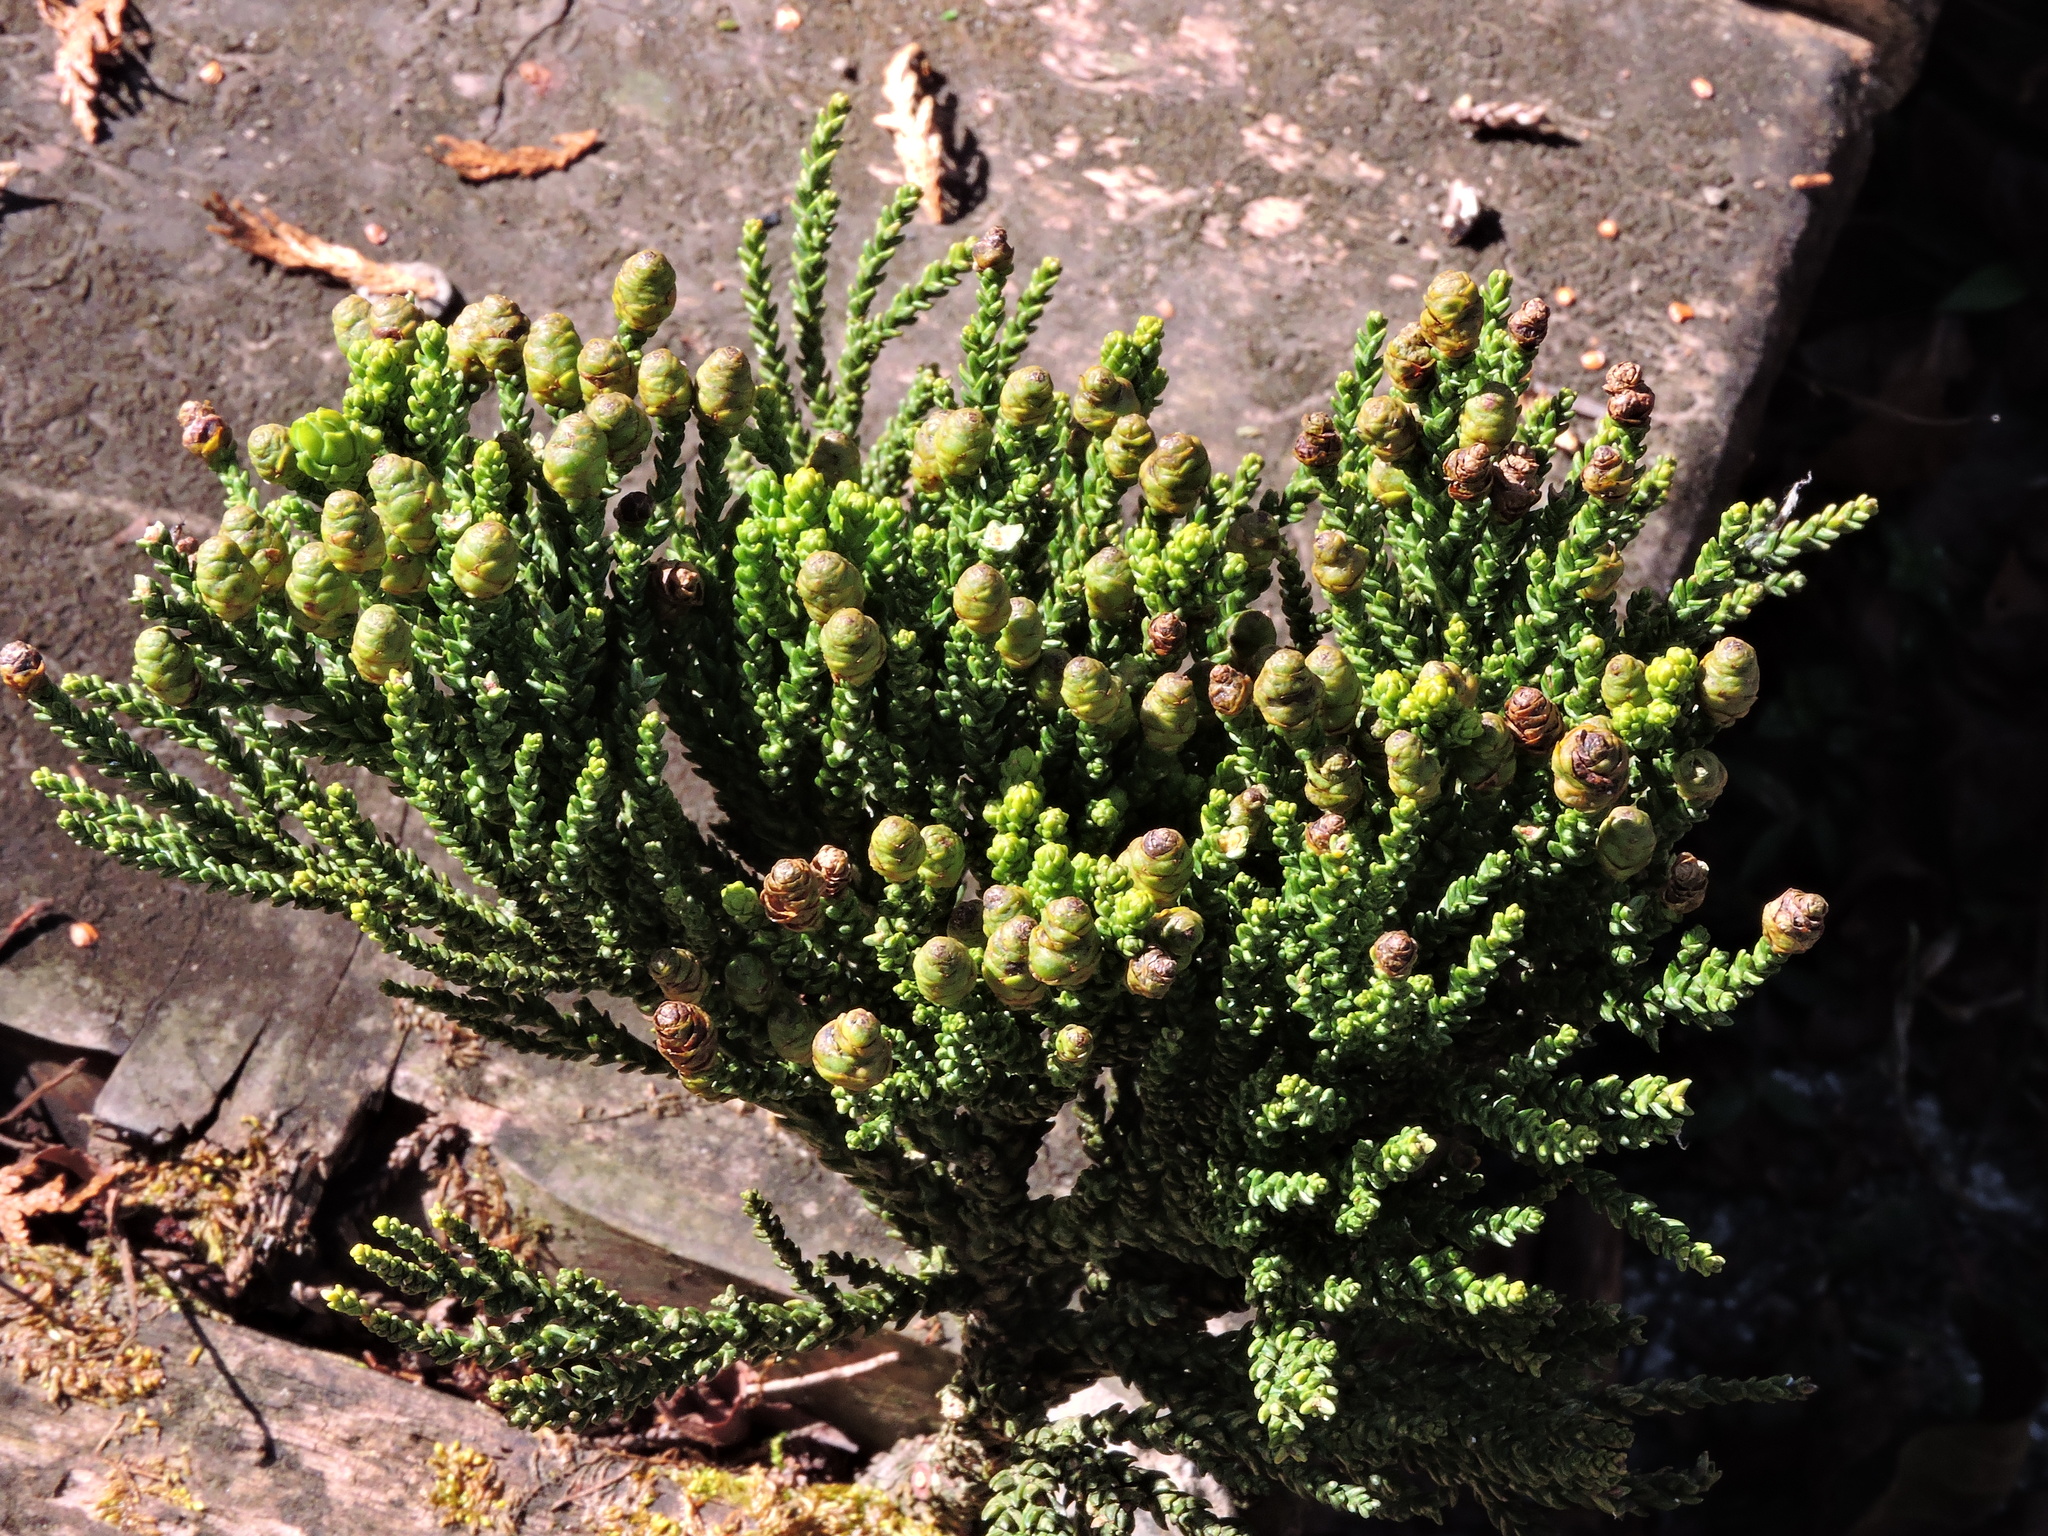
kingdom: Plantae
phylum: Tracheophyta
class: Pinopsida
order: Pinales
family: Cupressaceae
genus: Taiwania
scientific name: Taiwania cryptomerioides
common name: Coffin tree
